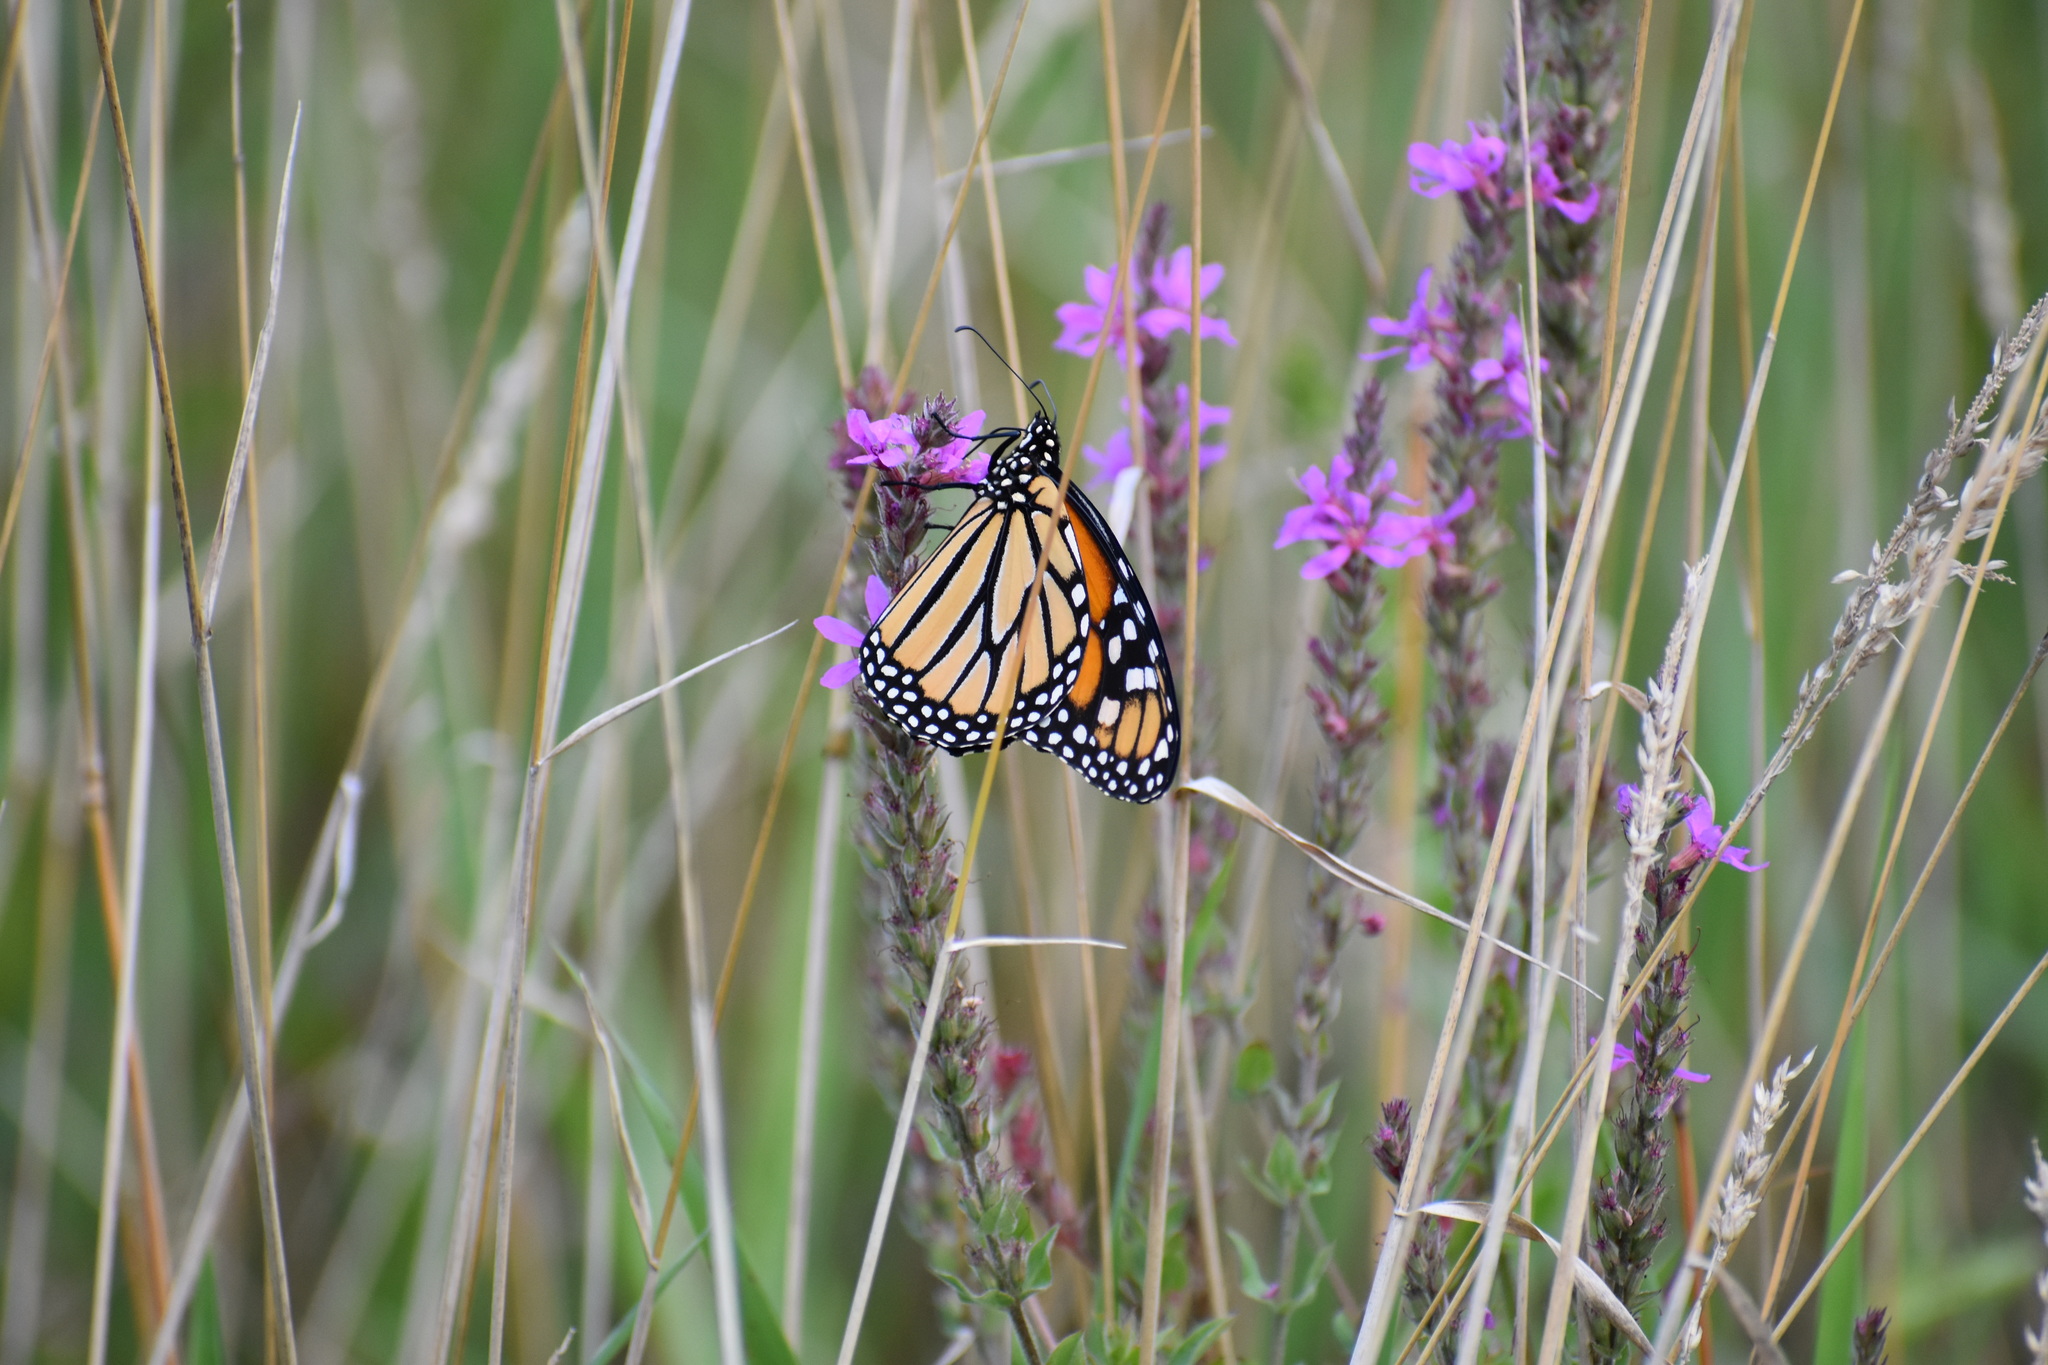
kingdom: Animalia
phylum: Arthropoda
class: Insecta
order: Lepidoptera
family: Nymphalidae
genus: Danaus
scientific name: Danaus plexippus
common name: Monarch
